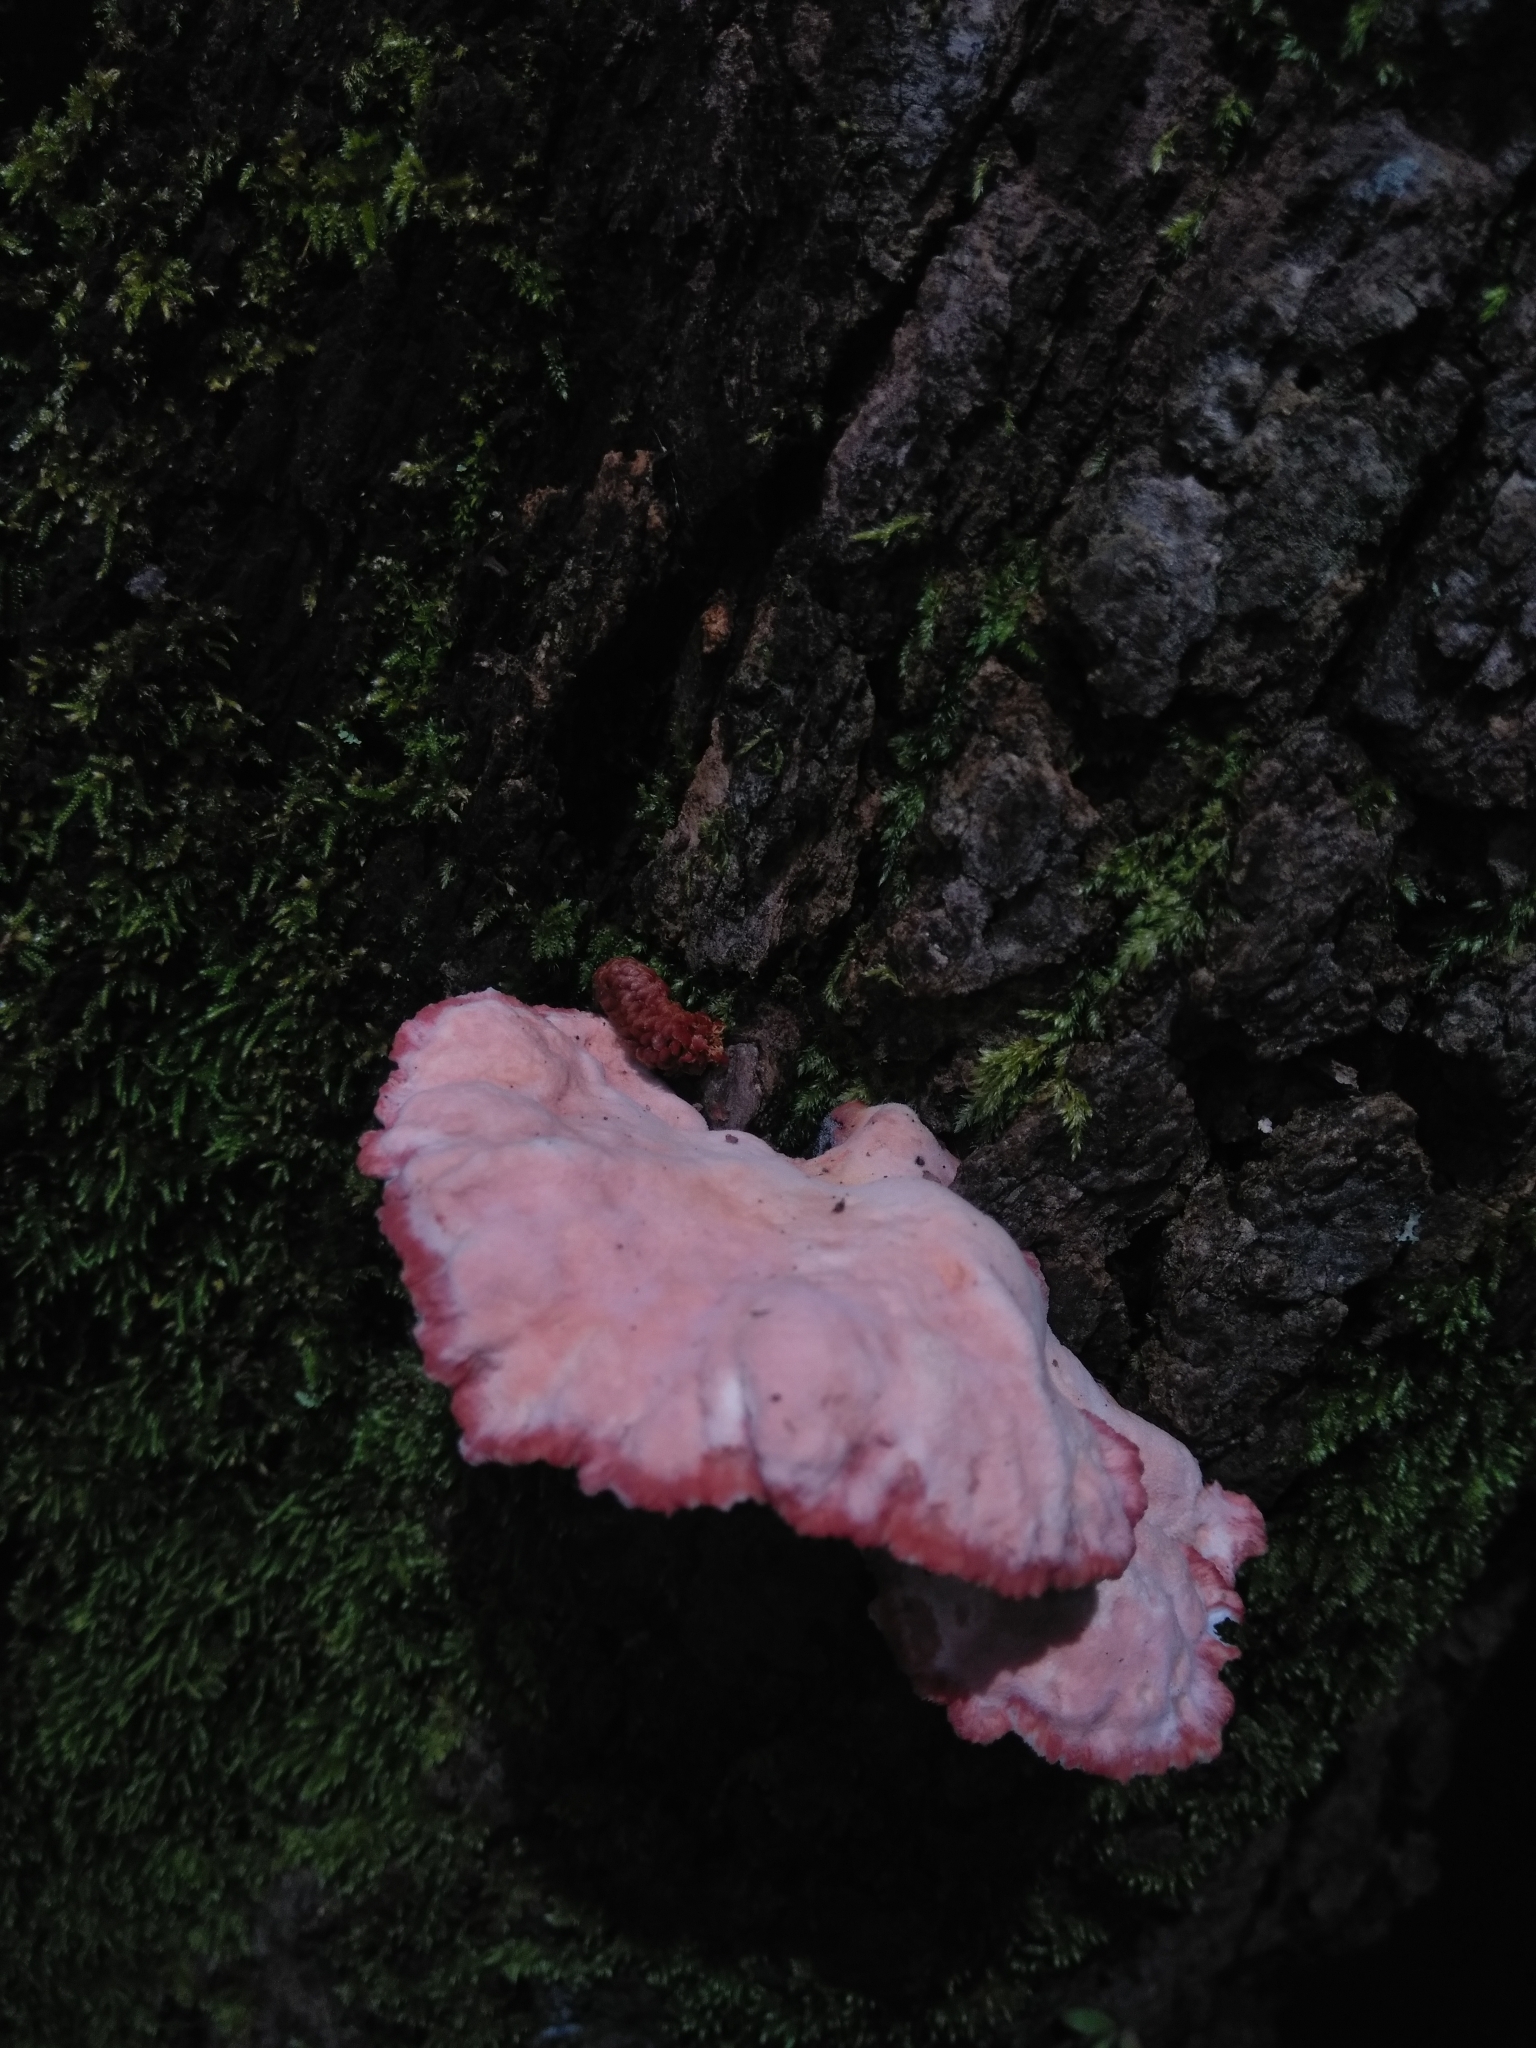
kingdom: Fungi
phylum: Basidiomycota
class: Agaricomycetes
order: Polyporales
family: Irpicaceae
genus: Byssomerulius
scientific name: Byssomerulius incarnatus
